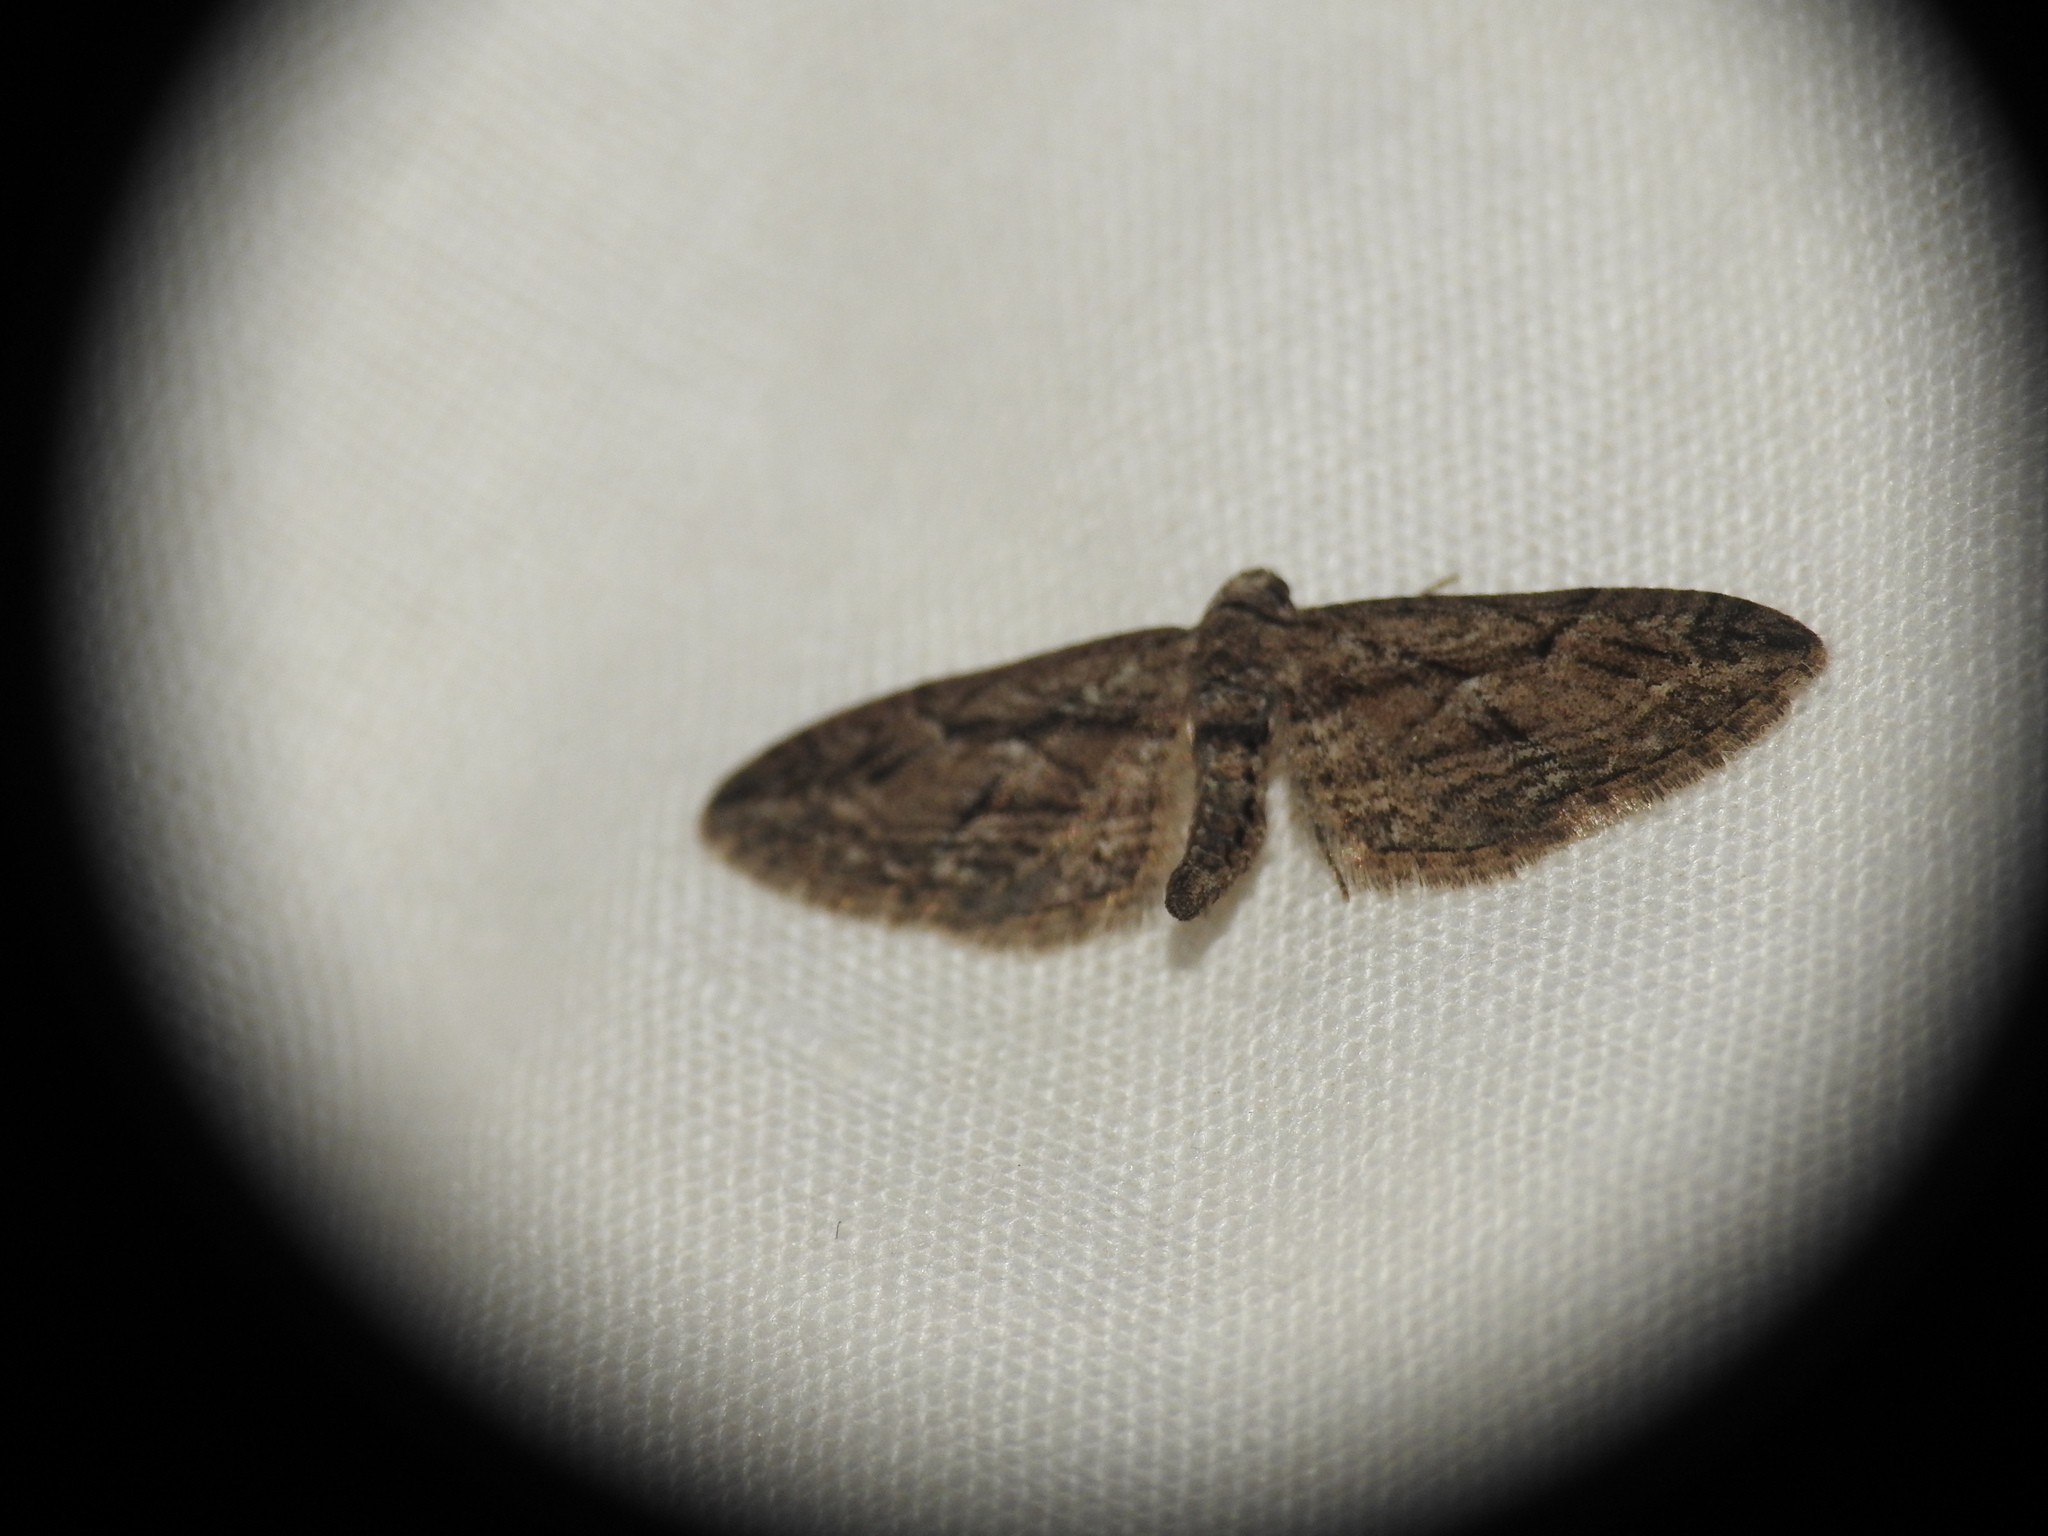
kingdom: Animalia
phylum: Arthropoda
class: Insecta
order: Lepidoptera
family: Geometridae
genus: Eupithecia
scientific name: Eupithecia oxycedrata
